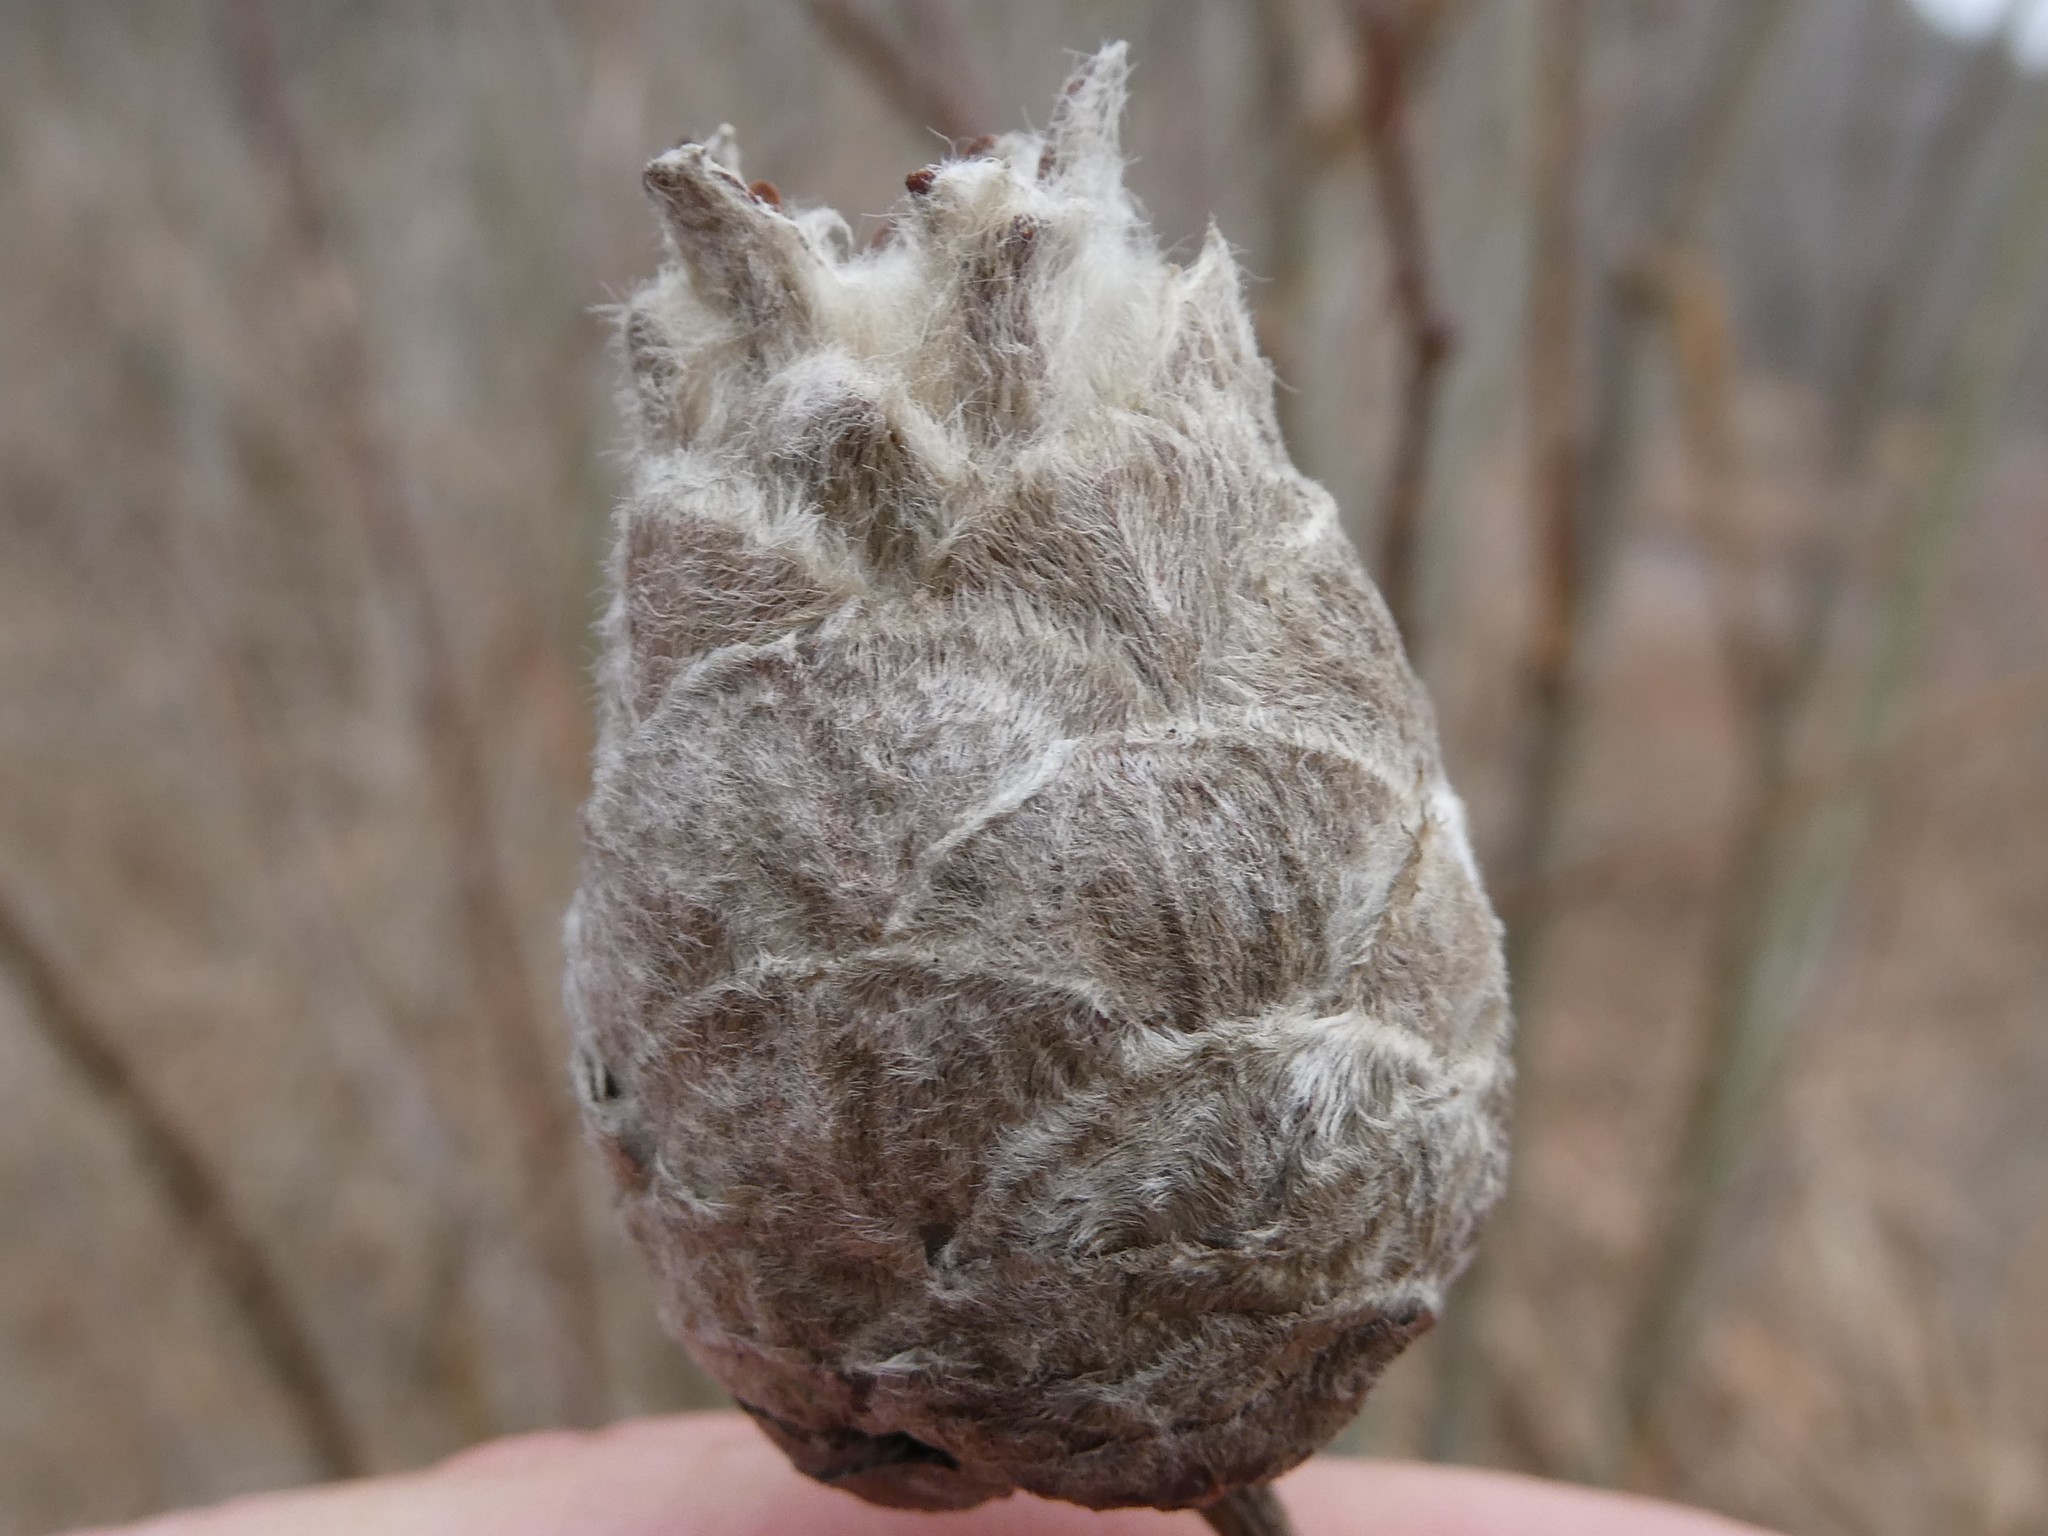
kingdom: Animalia
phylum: Arthropoda
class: Insecta
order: Diptera
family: Cecidomyiidae
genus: Rabdophaga
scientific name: Rabdophaga strobiloides
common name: Willow pinecone gall midge
